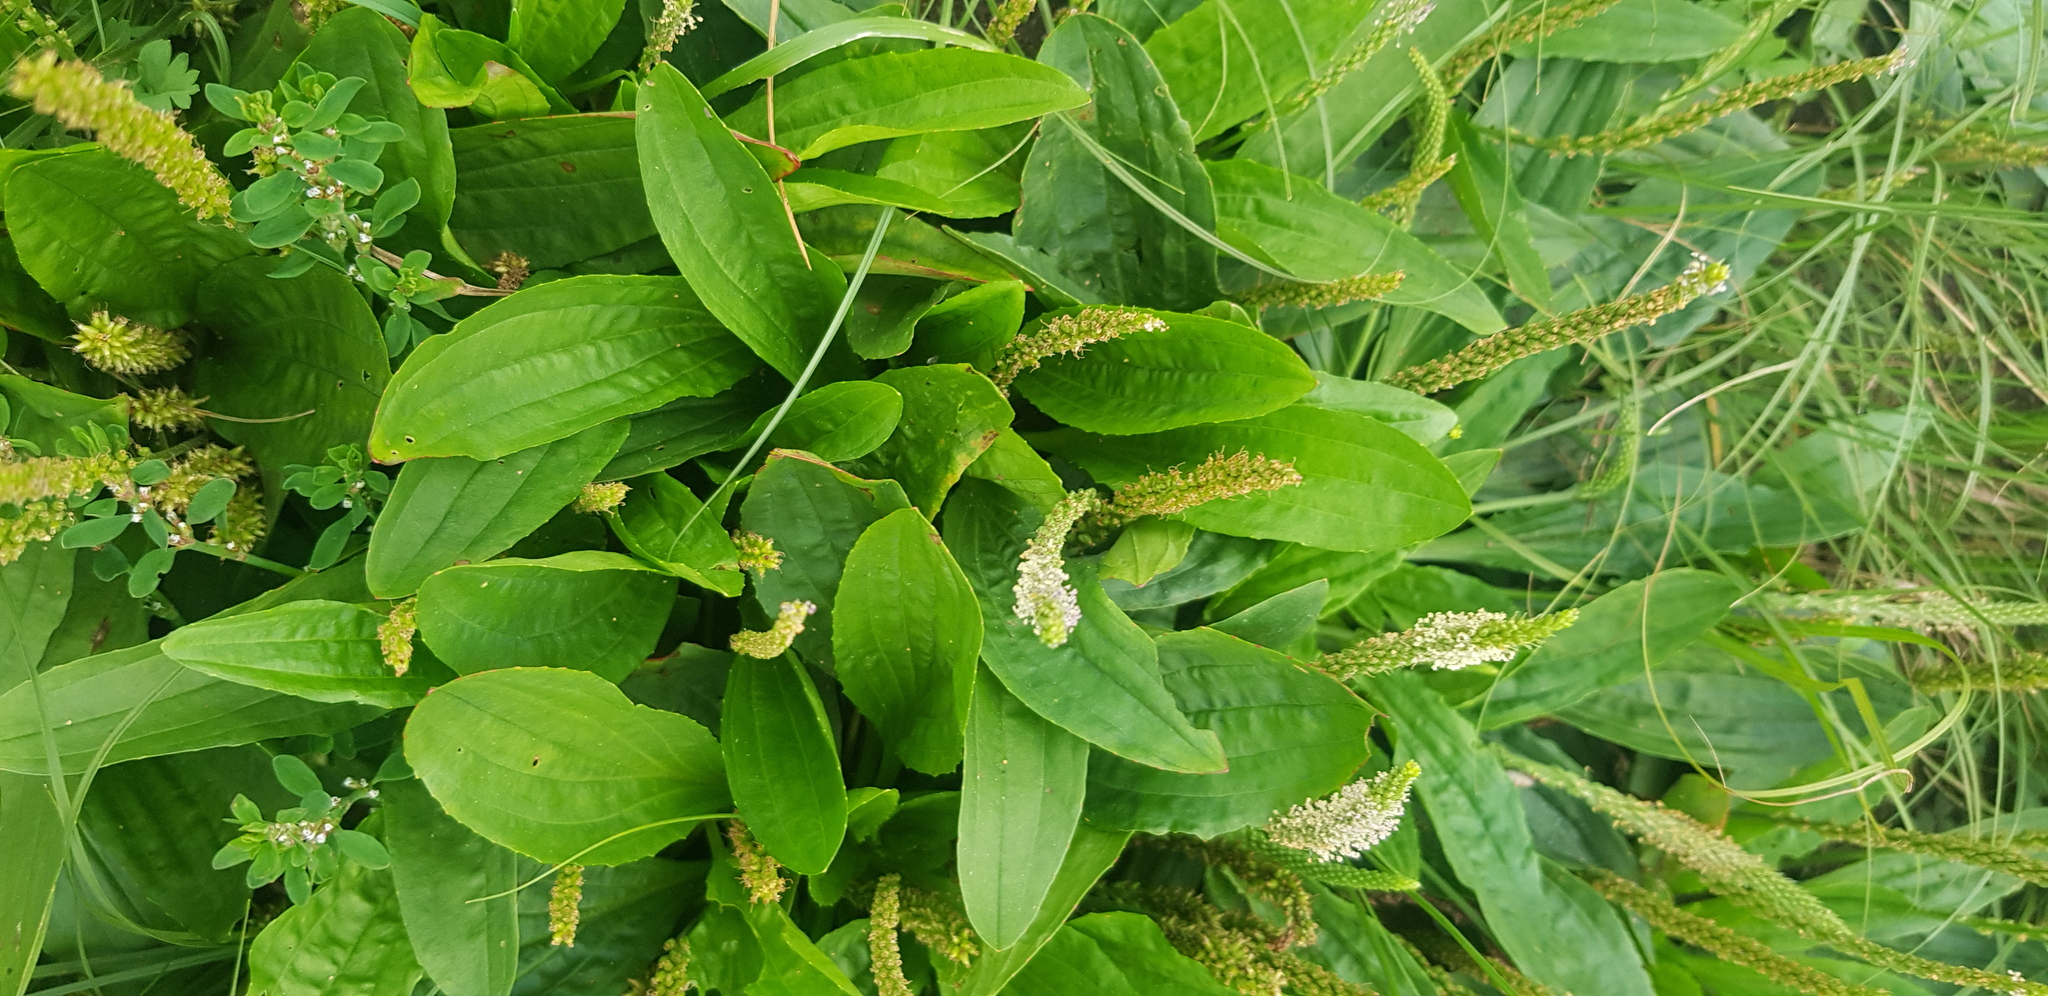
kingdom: Plantae
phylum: Tracheophyta
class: Magnoliopsida
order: Lamiales
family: Plantaginaceae
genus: Plantago
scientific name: Plantago media
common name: Hoary plantain
